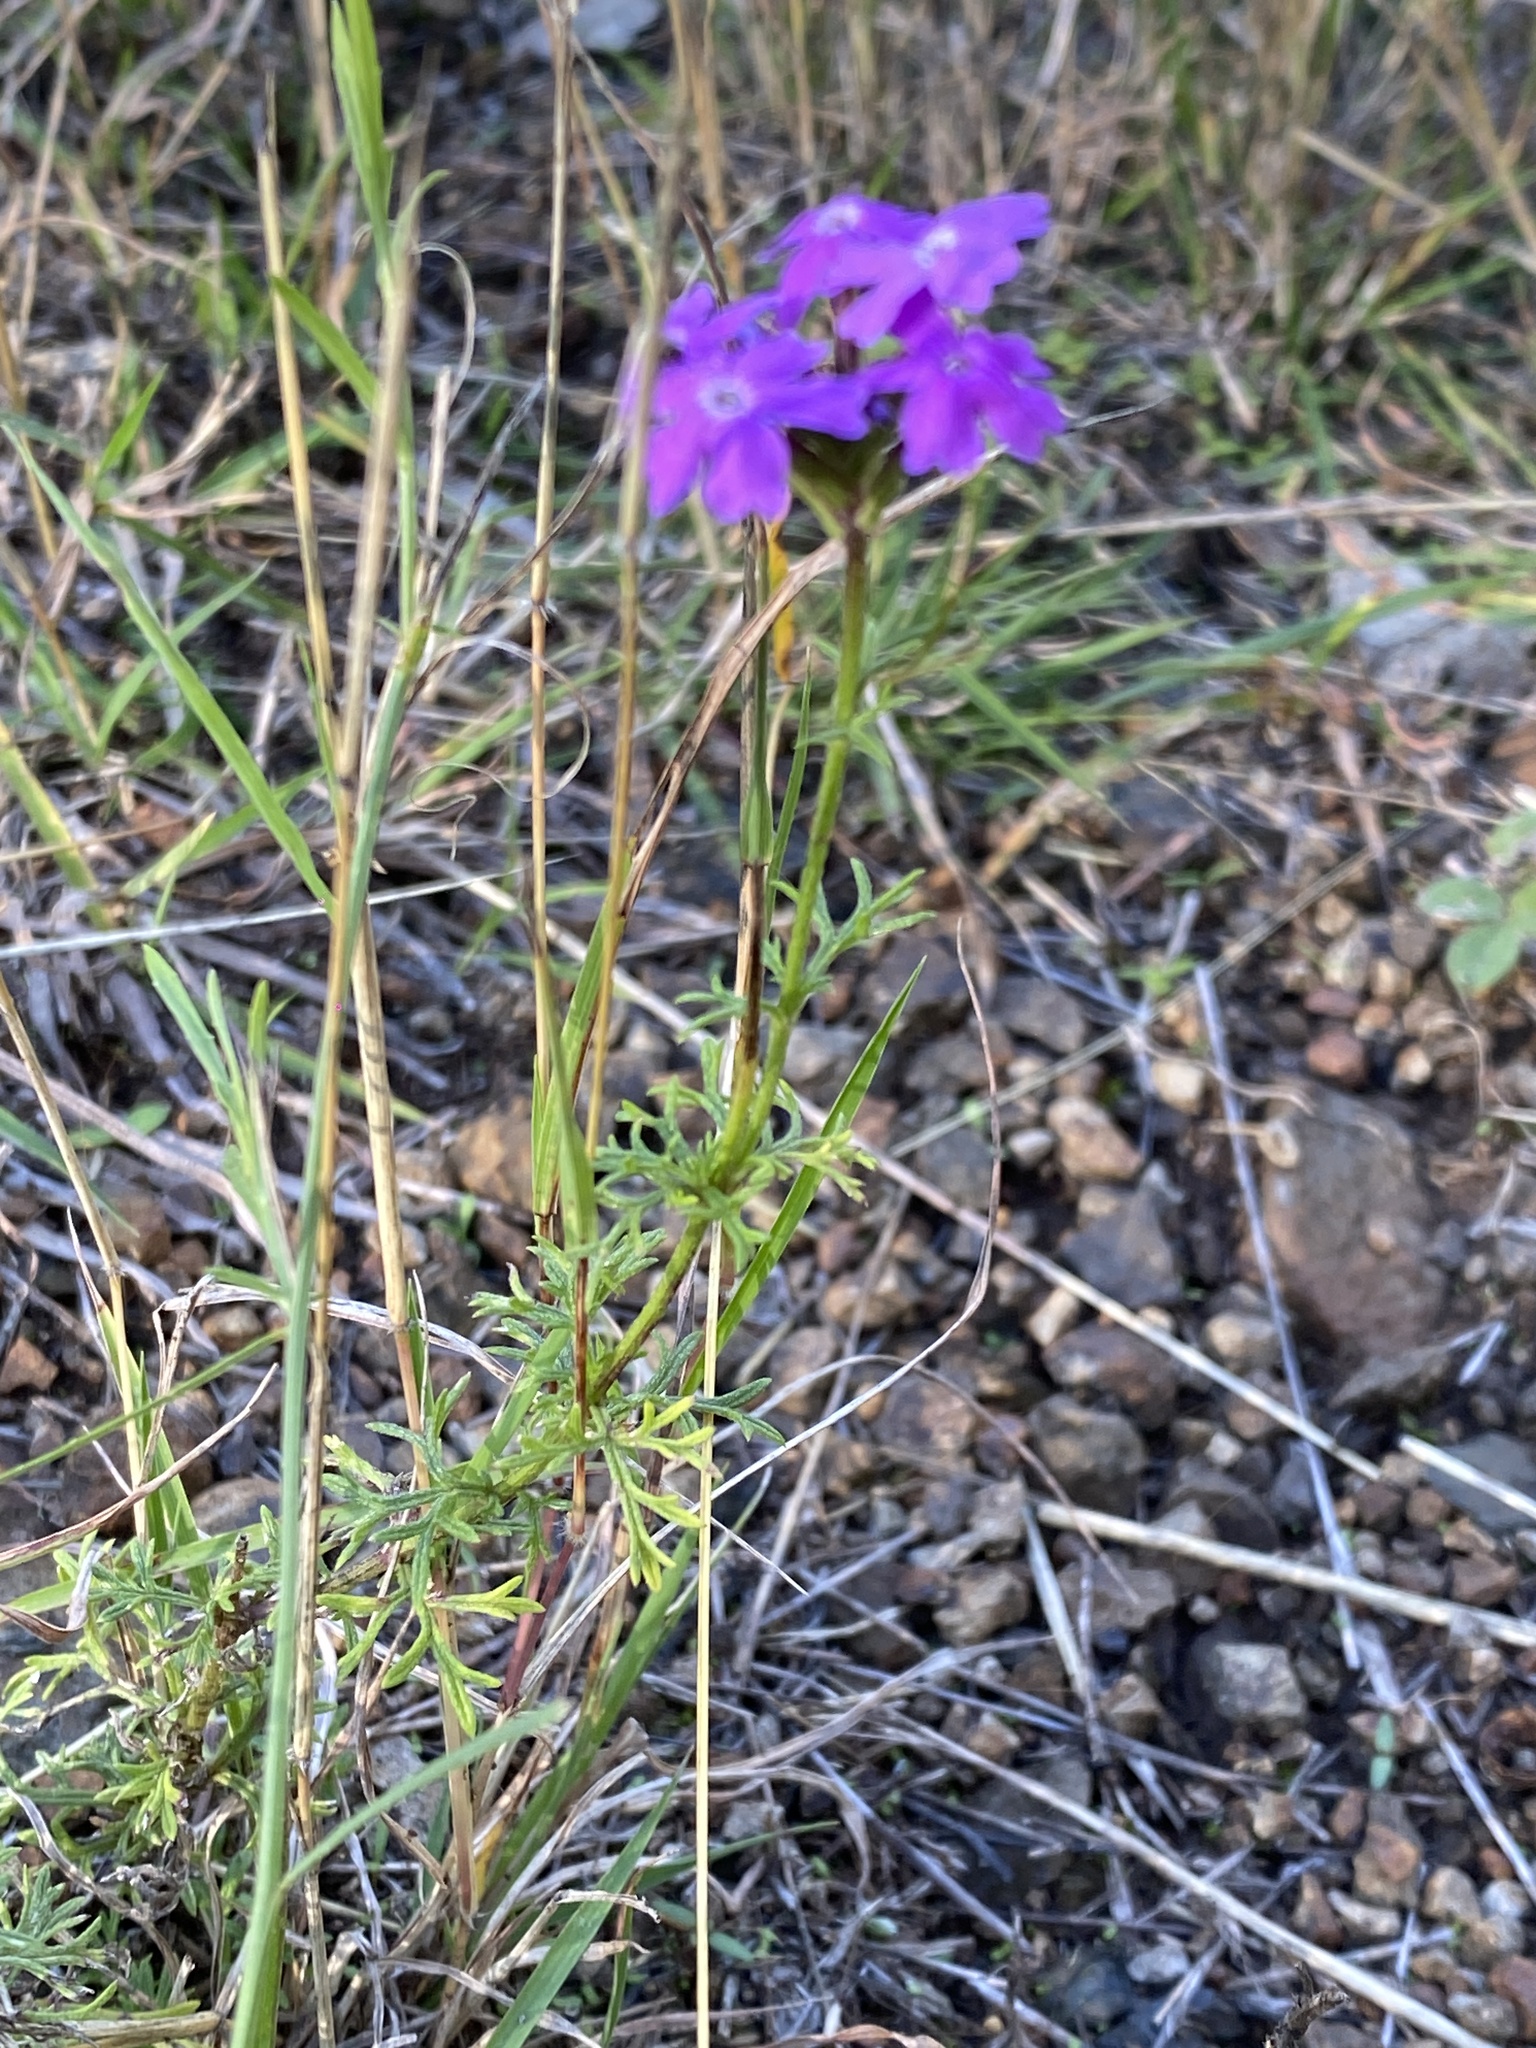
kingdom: Plantae
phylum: Tracheophyta
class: Magnoliopsida
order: Lamiales
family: Verbenaceae
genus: Verbena
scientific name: Verbena aristigera
